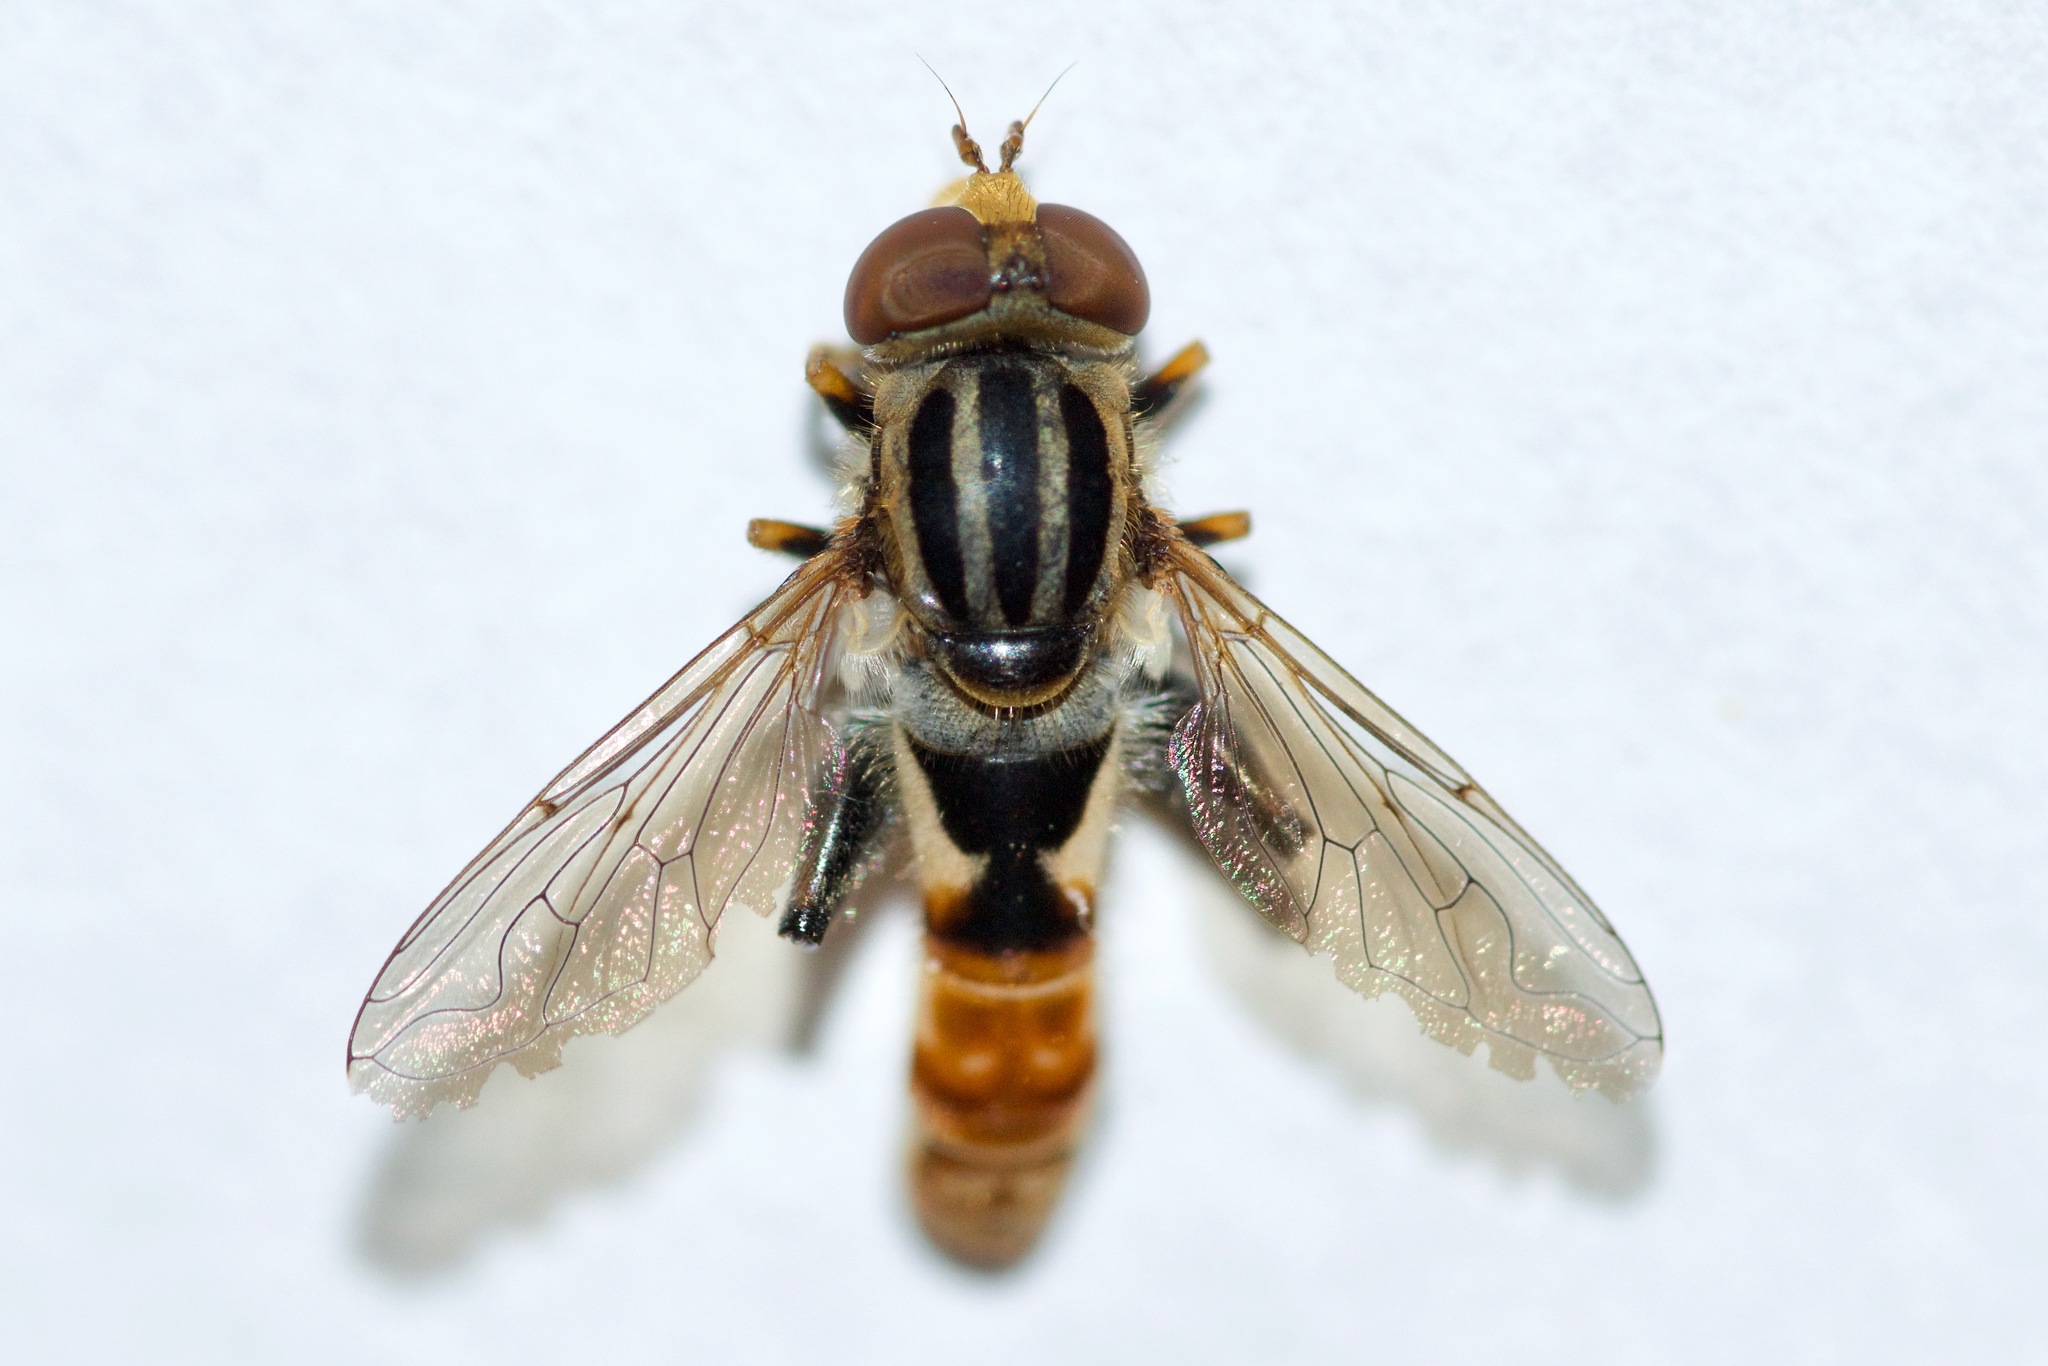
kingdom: Animalia
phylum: Arthropoda
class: Insecta
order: Diptera
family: Syrphidae
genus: Anasimyia
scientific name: Anasimyia chrysostomus
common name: Lump-legged swamp fly
